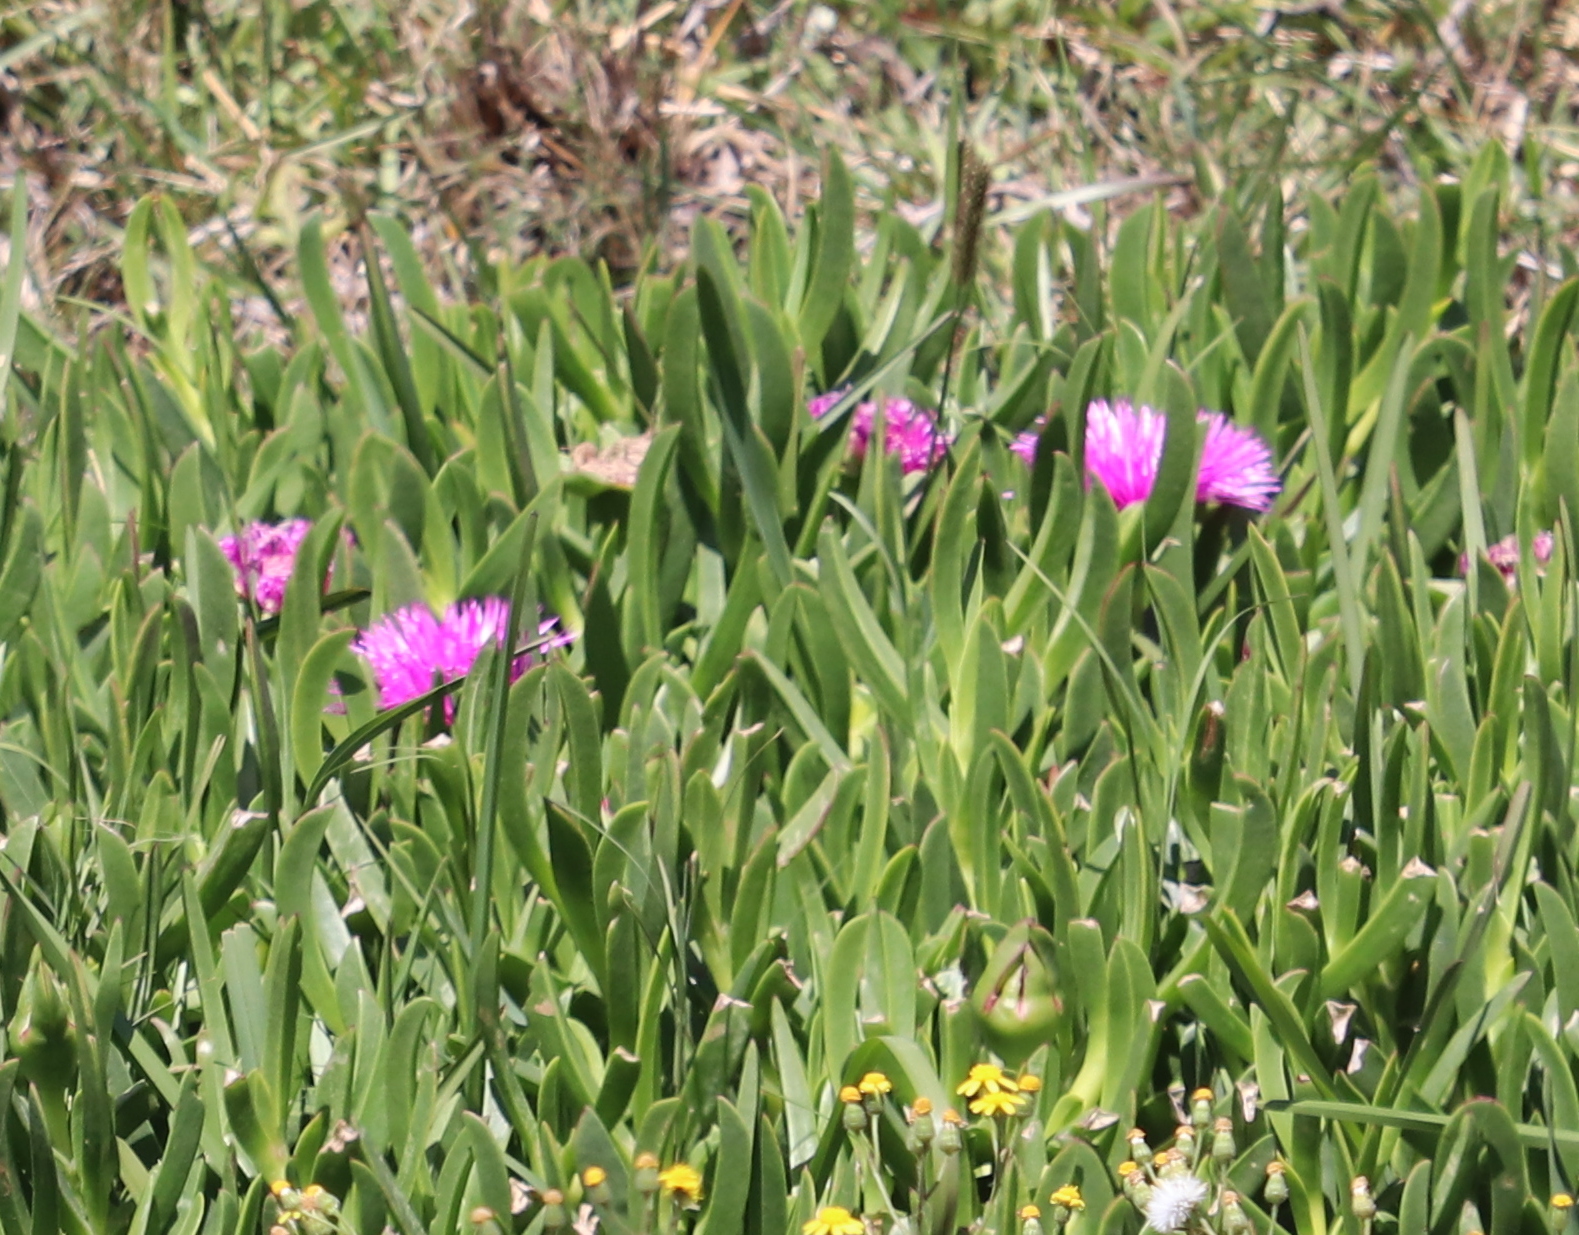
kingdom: Plantae
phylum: Tracheophyta
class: Magnoliopsida
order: Caryophyllales
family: Aizoaceae
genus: Carpobrotus
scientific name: Carpobrotus deliciosus
